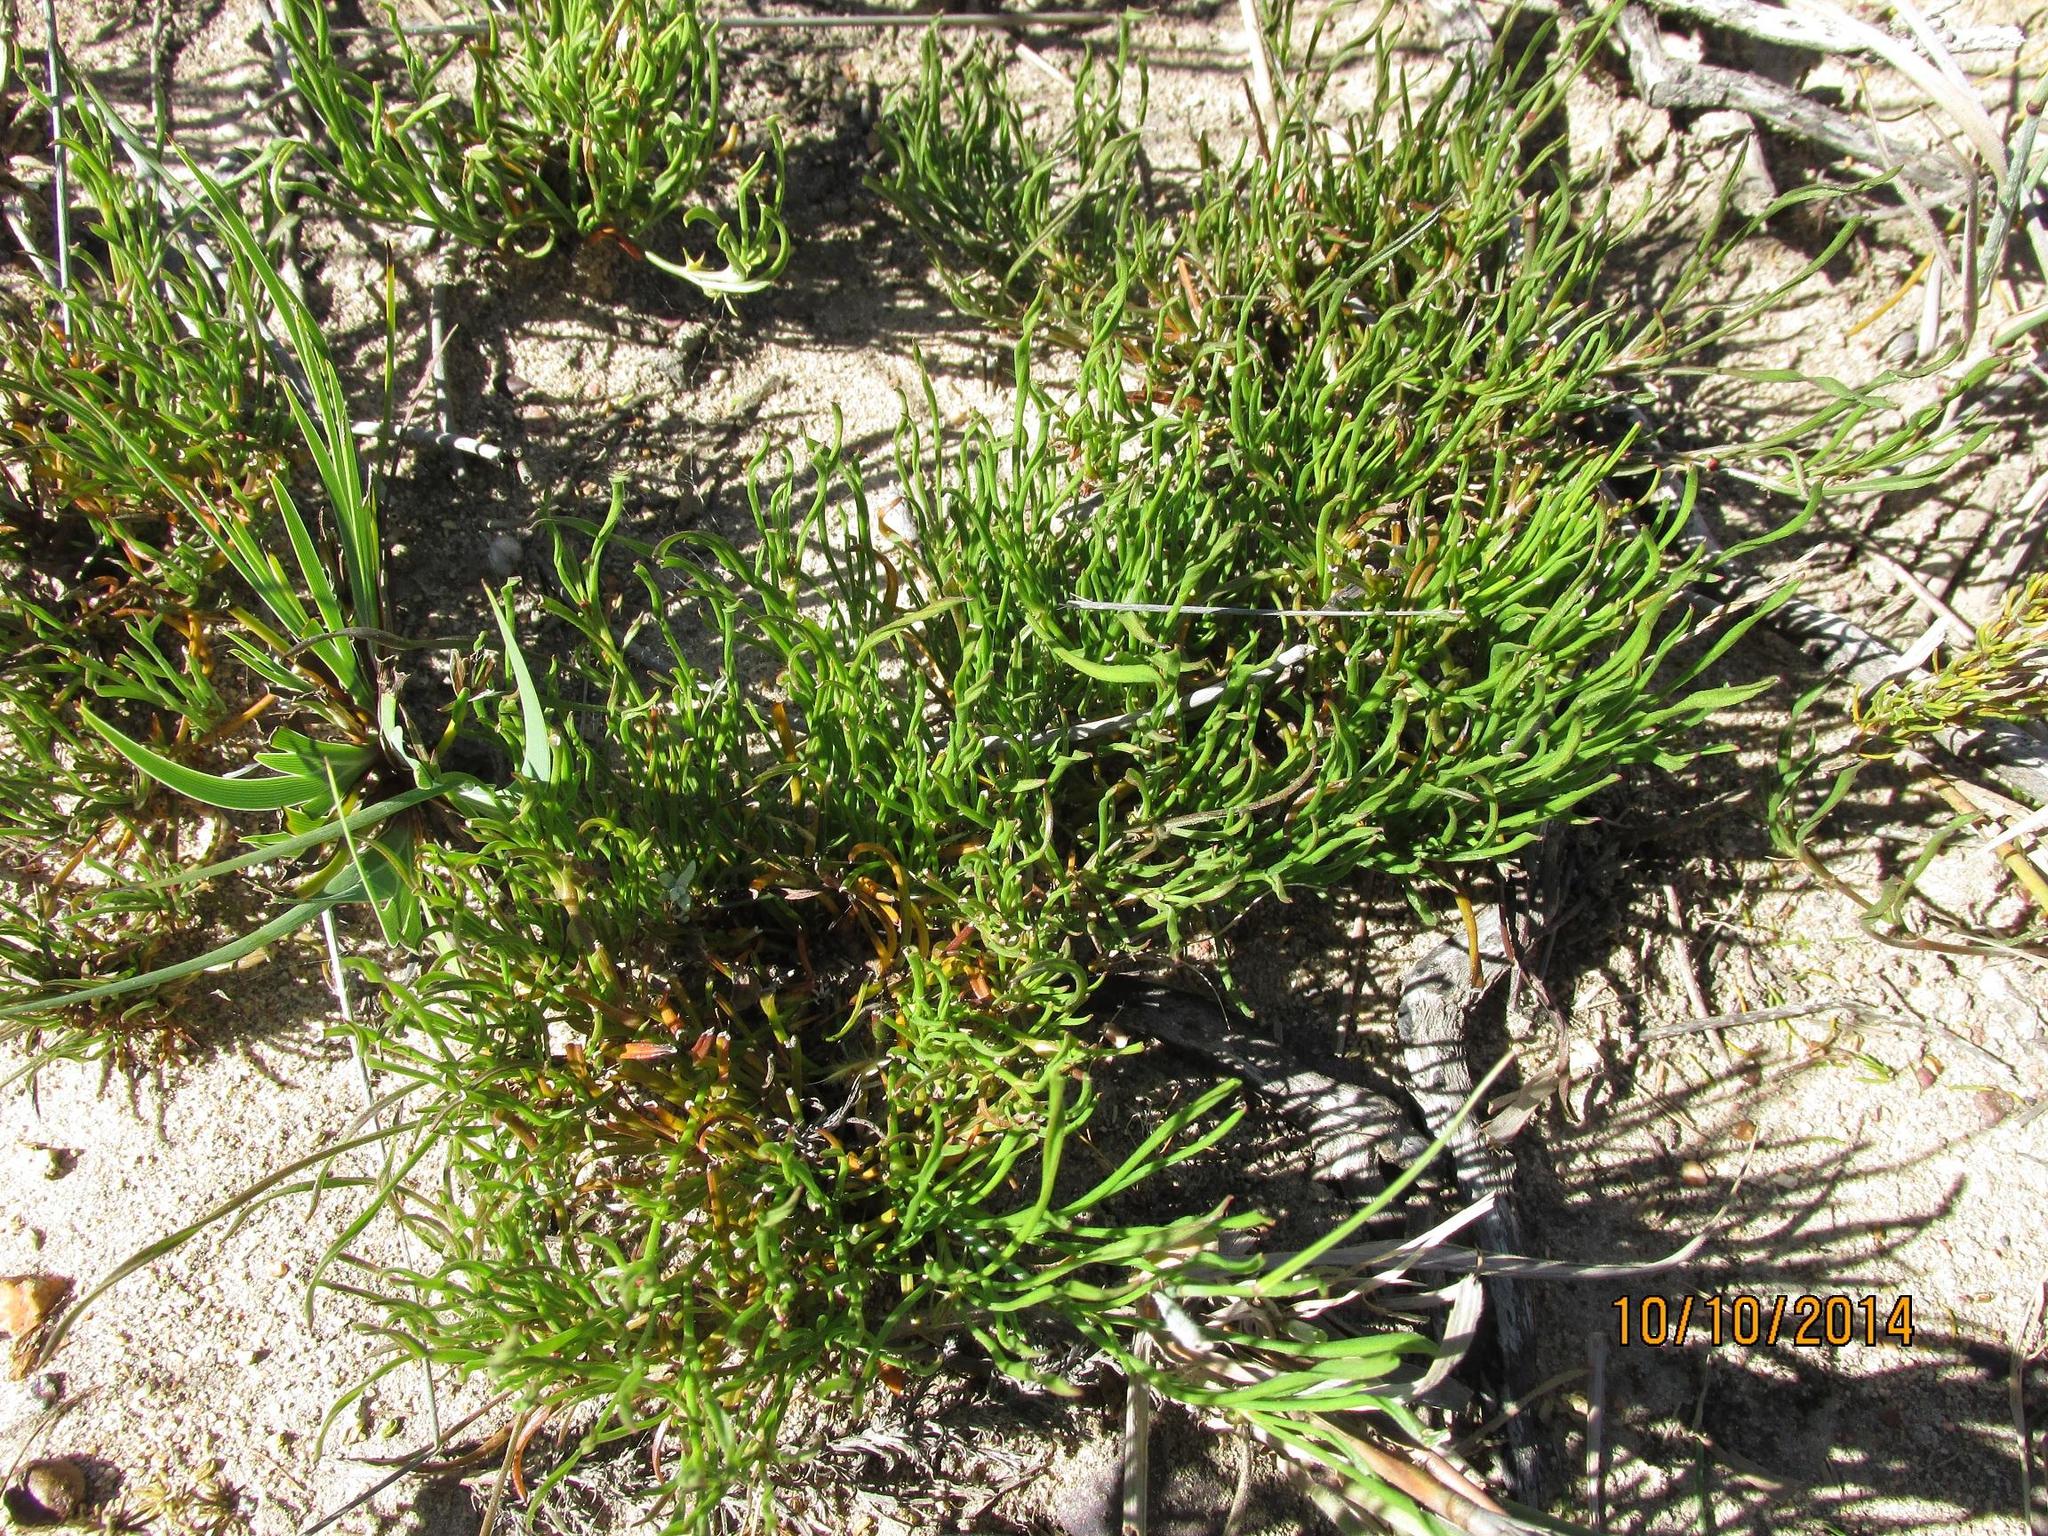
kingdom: Plantae
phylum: Tracheophyta
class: Magnoliopsida
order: Apiales
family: Apiaceae
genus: Centella
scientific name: Centella fusca
